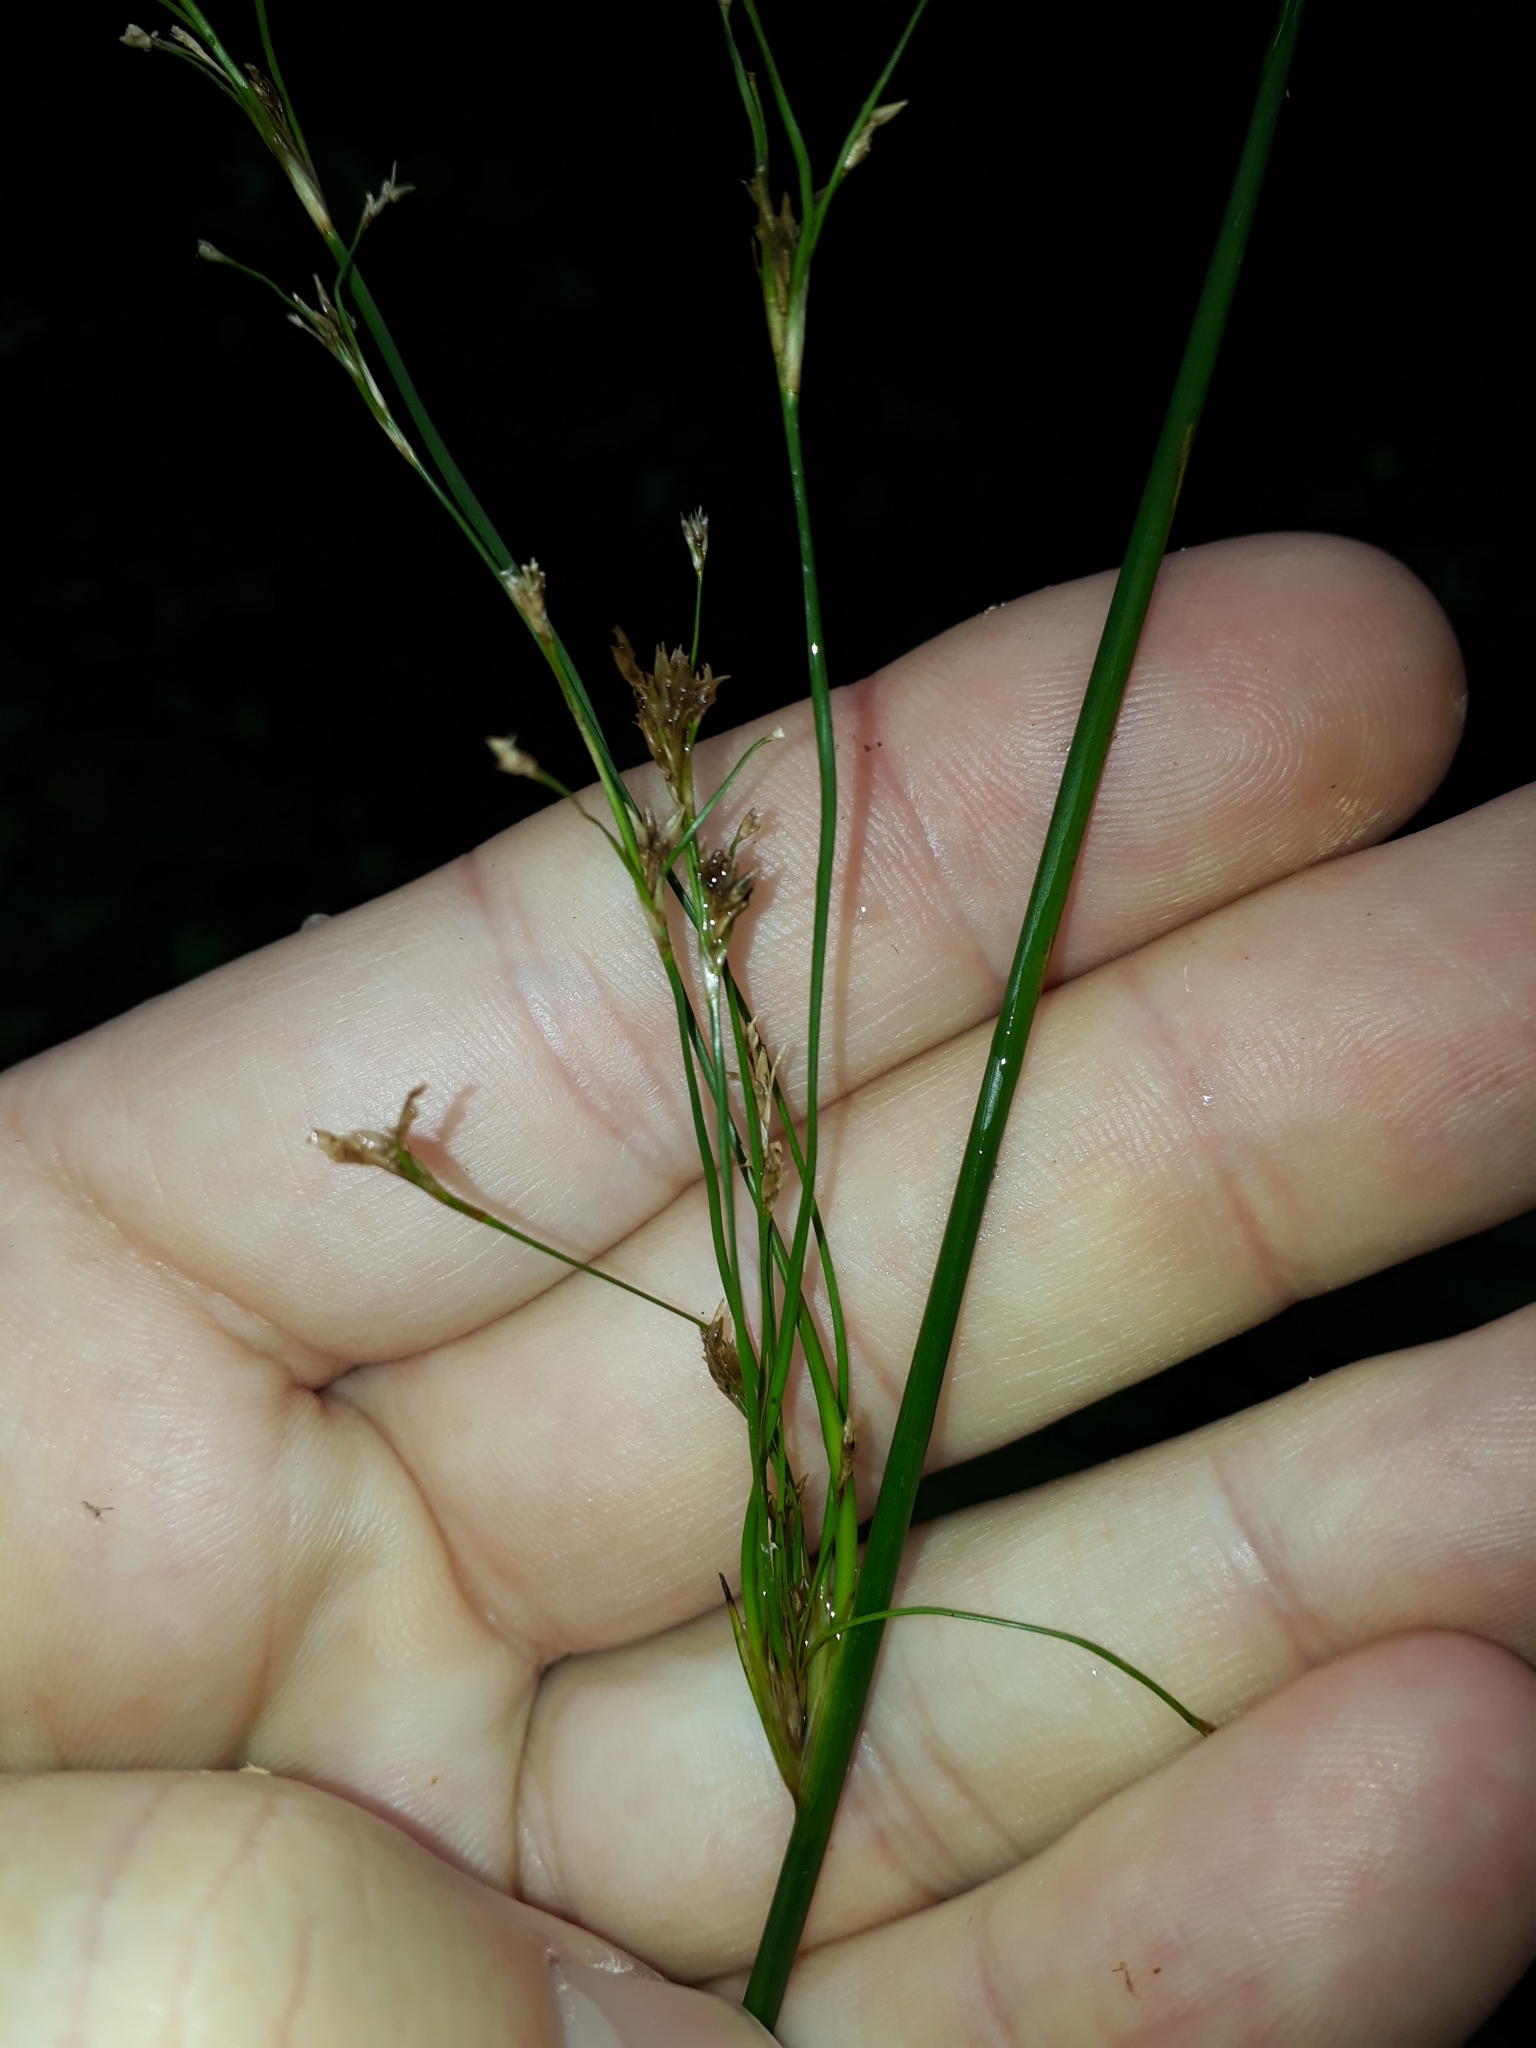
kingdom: Plantae
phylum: Tracheophyta
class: Liliopsida
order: Poales
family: Juncaceae
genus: Juncus
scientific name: Juncus edgariae
